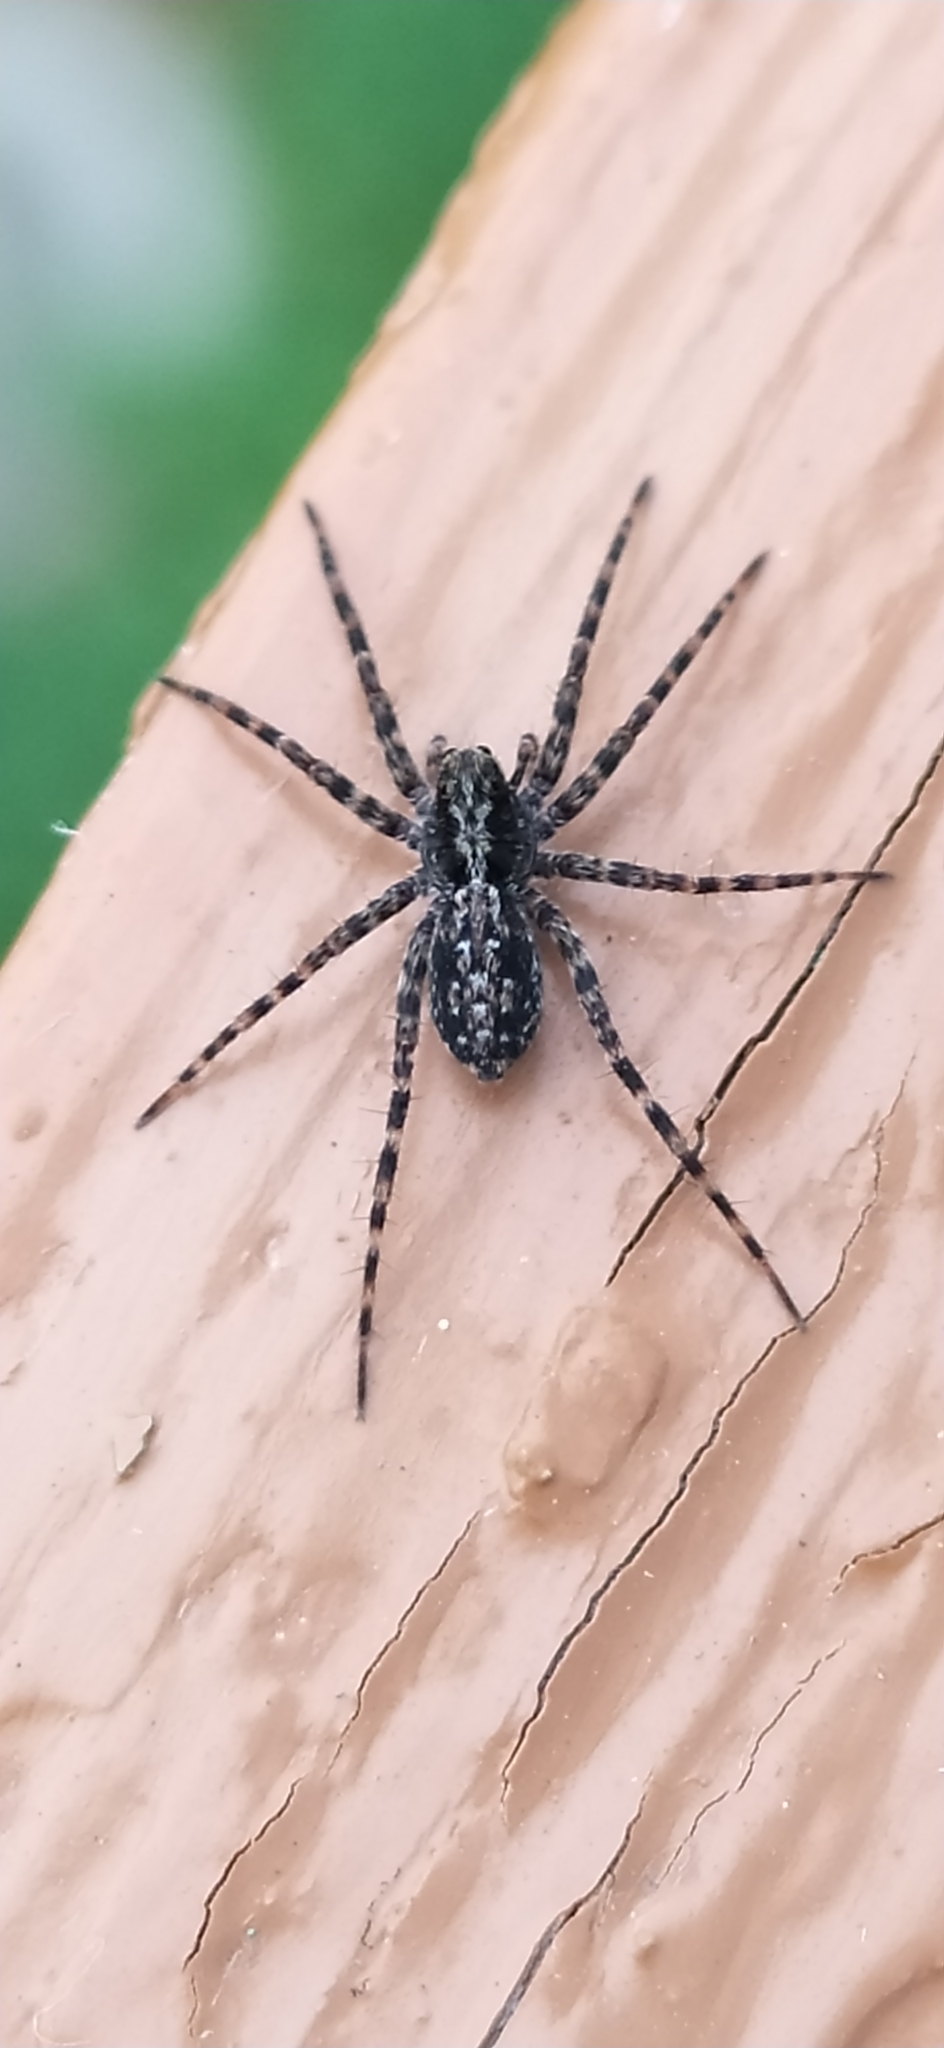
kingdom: Animalia
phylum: Arthropoda
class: Arachnida
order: Araneae
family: Lycosidae
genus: Acantholycosa
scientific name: Acantholycosa lignaria
